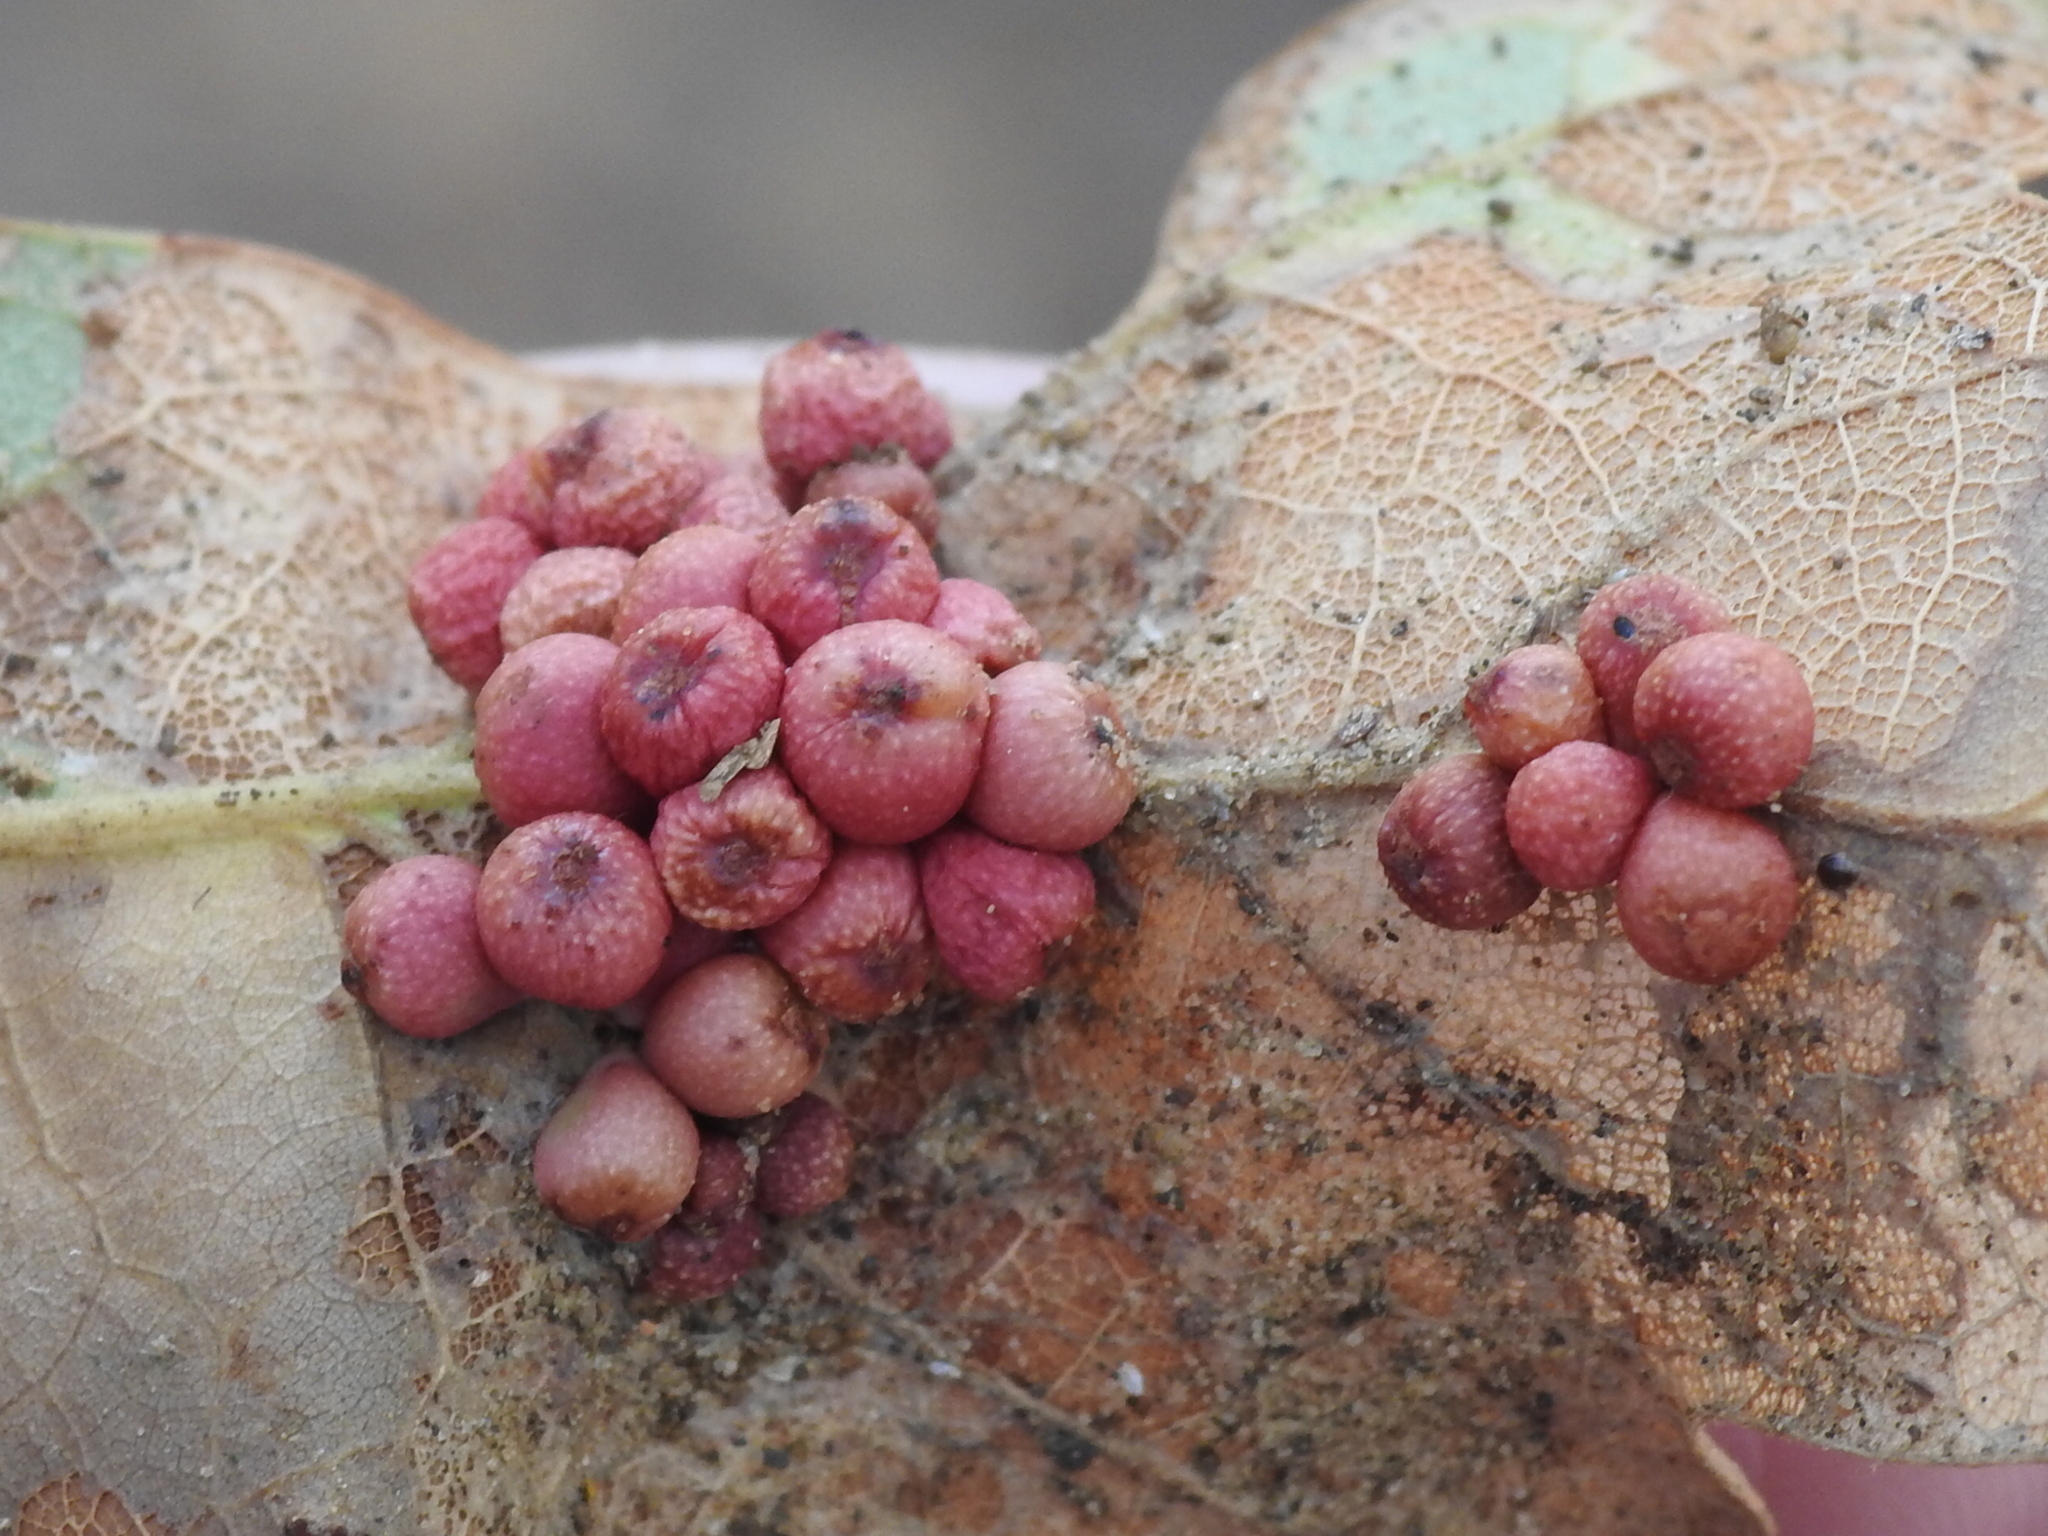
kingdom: Animalia
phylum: Arthropoda
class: Insecta
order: Hymenoptera
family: Cynipidae
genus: Andricus
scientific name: Andricus lustrans
